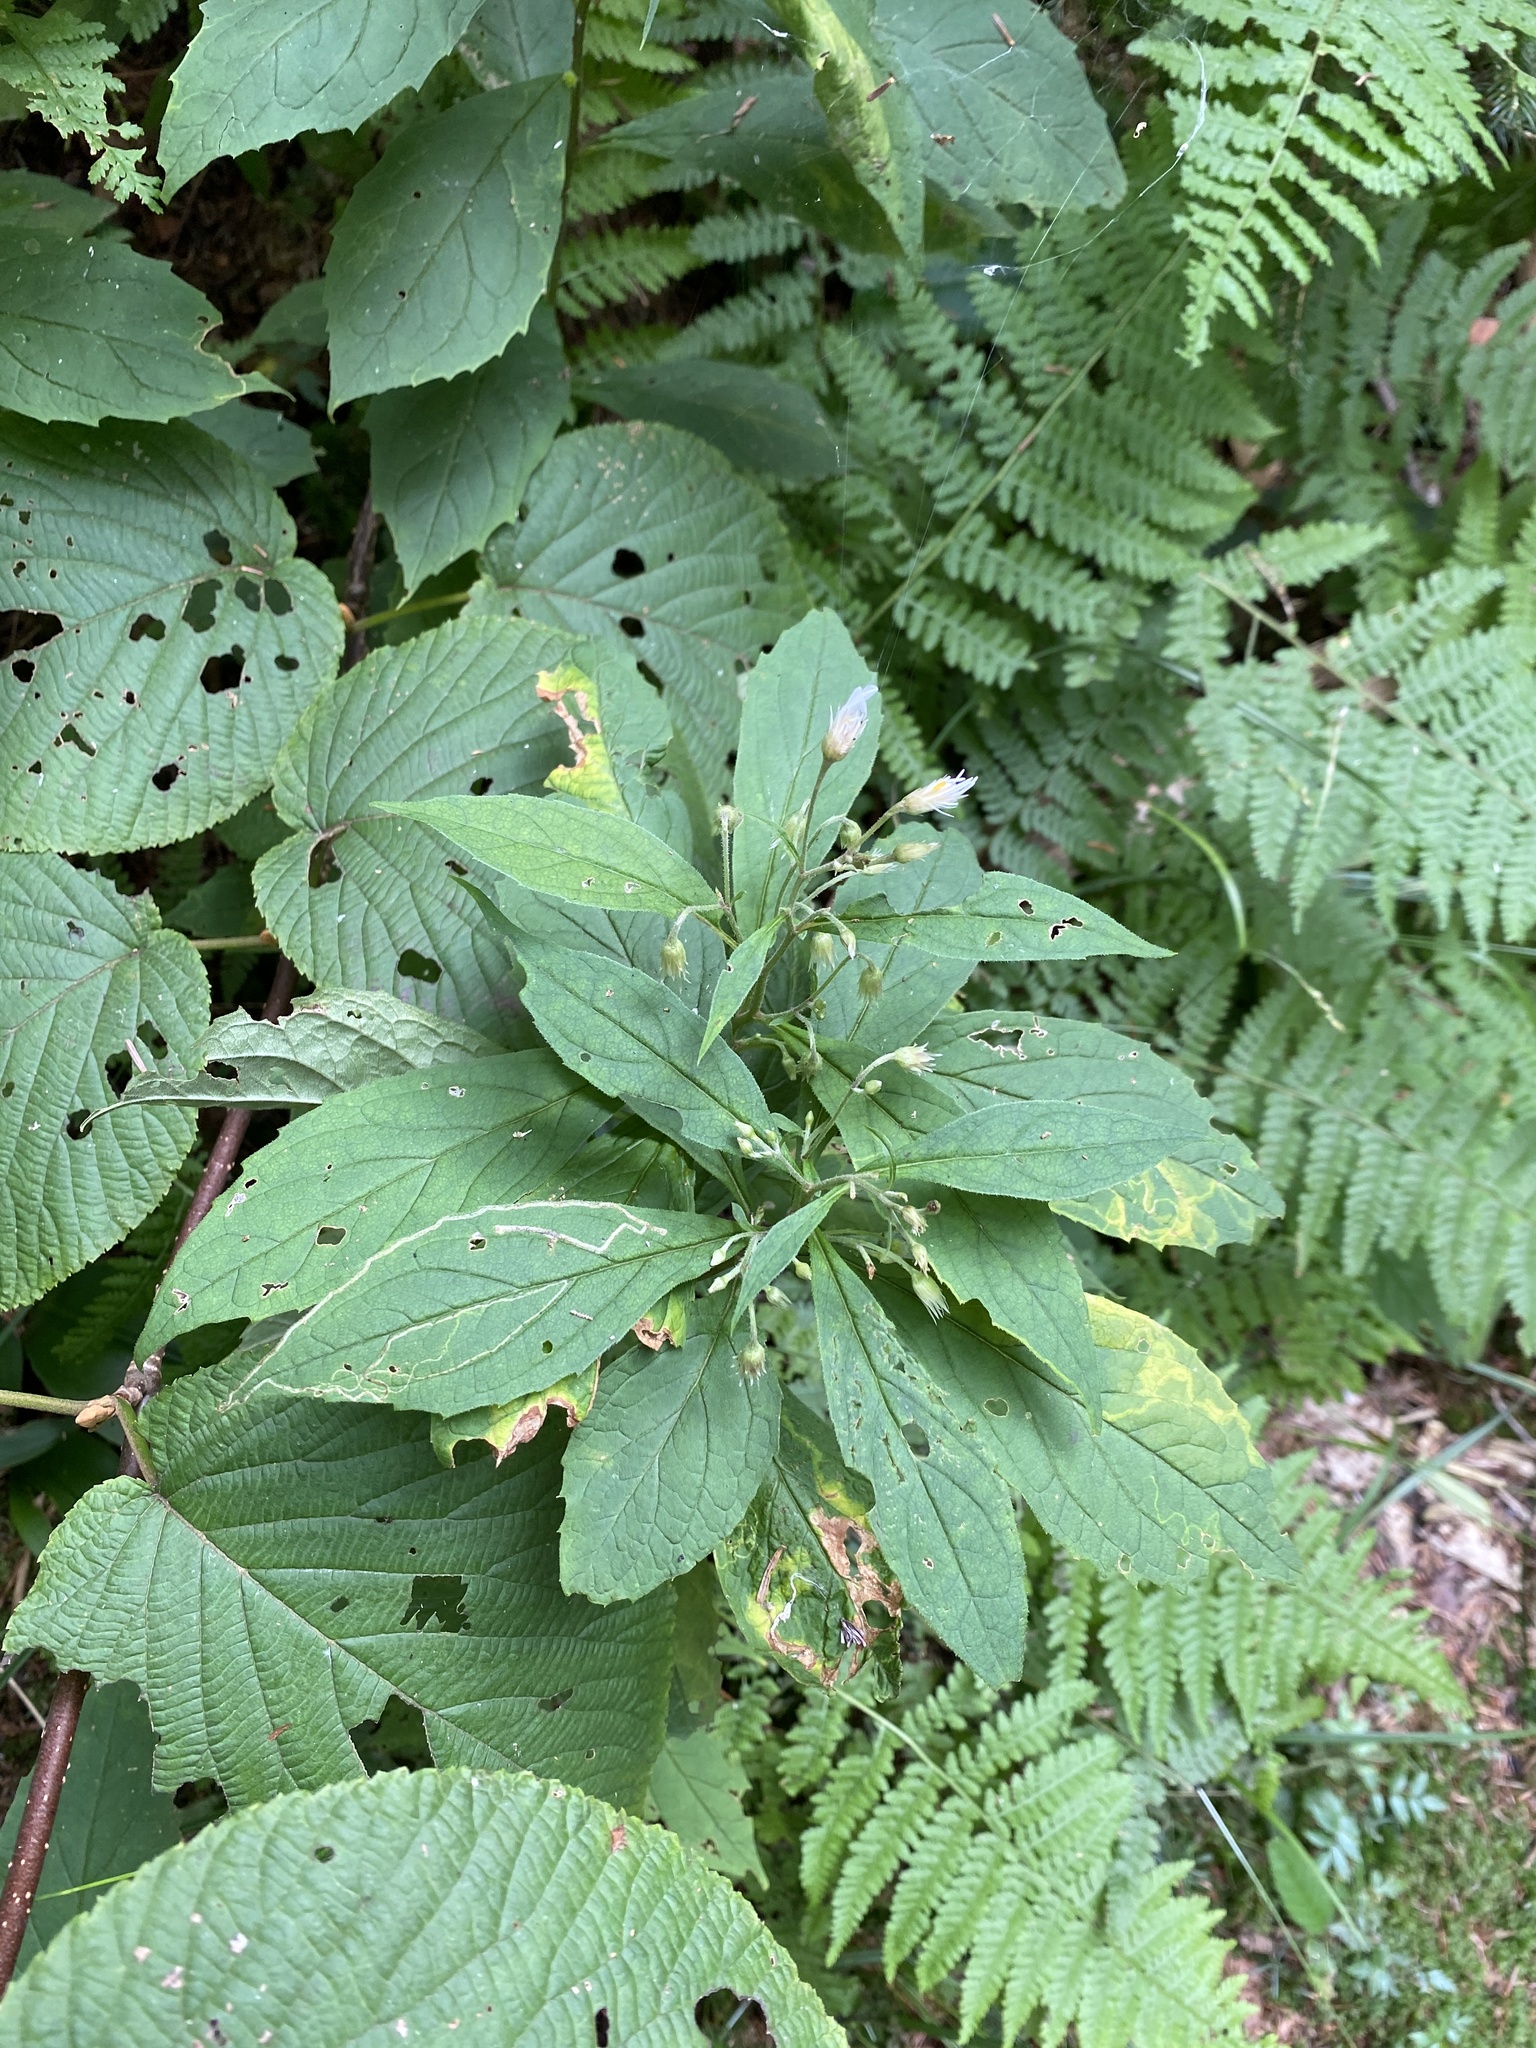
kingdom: Plantae
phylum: Tracheophyta
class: Magnoliopsida
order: Asterales
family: Asteraceae
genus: Oclemena
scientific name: Oclemena acuminata
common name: Mountain aster
